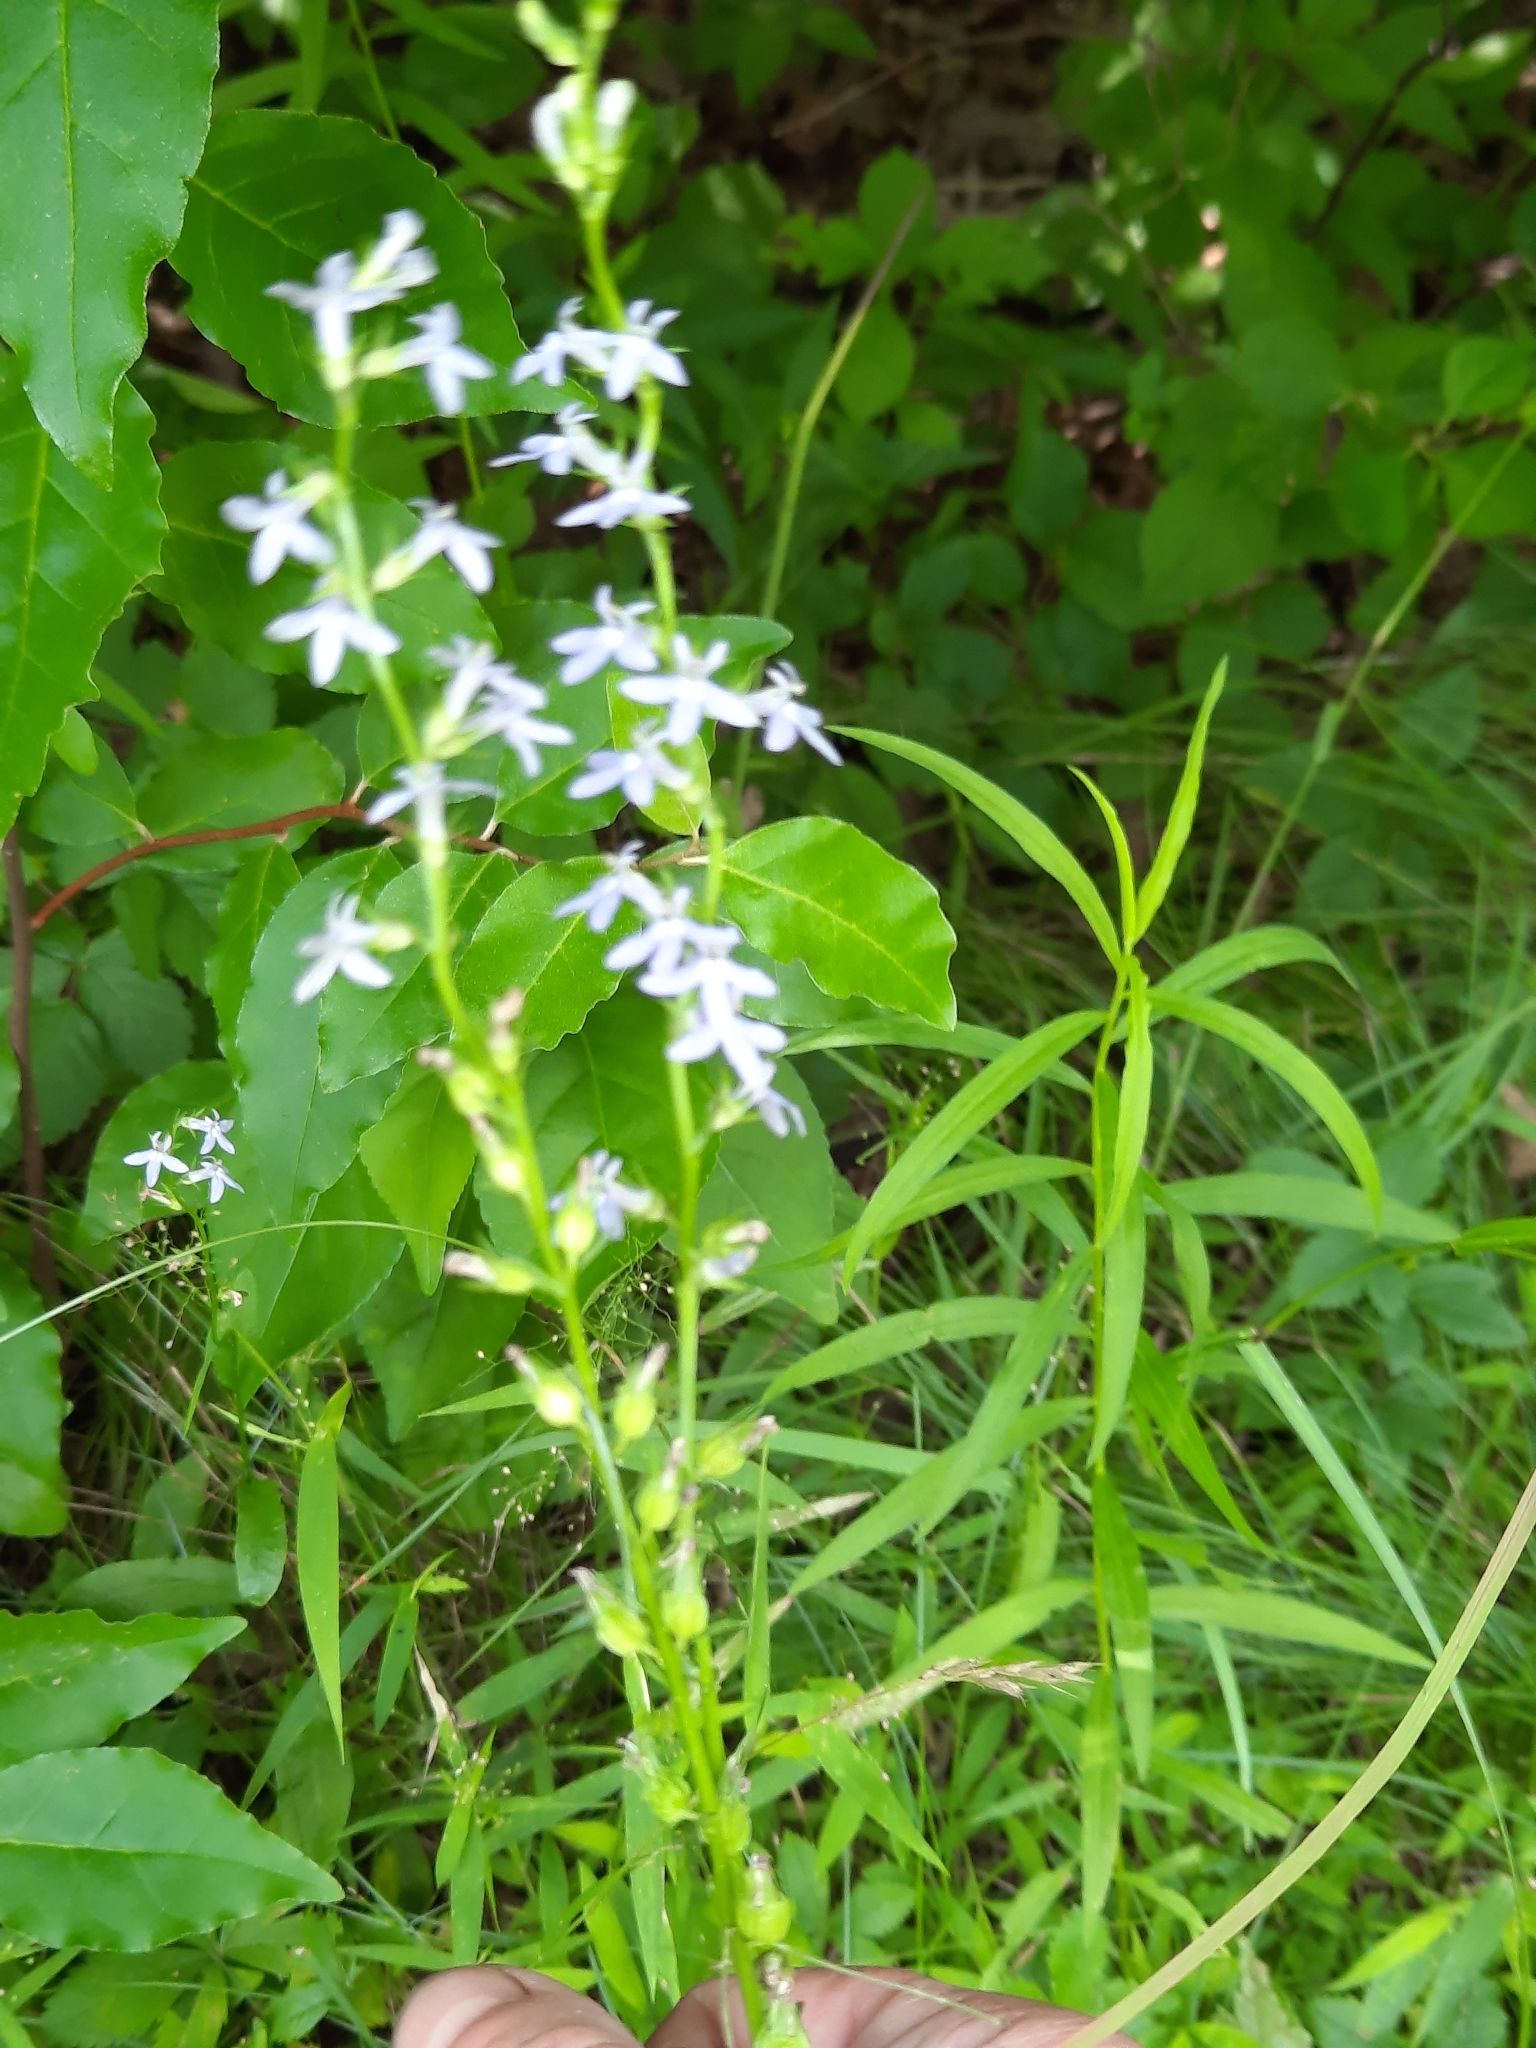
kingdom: Plantae
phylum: Tracheophyta
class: Magnoliopsida
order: Asterales
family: Campanulaceae
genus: Lobelia
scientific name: Lobelia spicata
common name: Pale-spike lobelia
